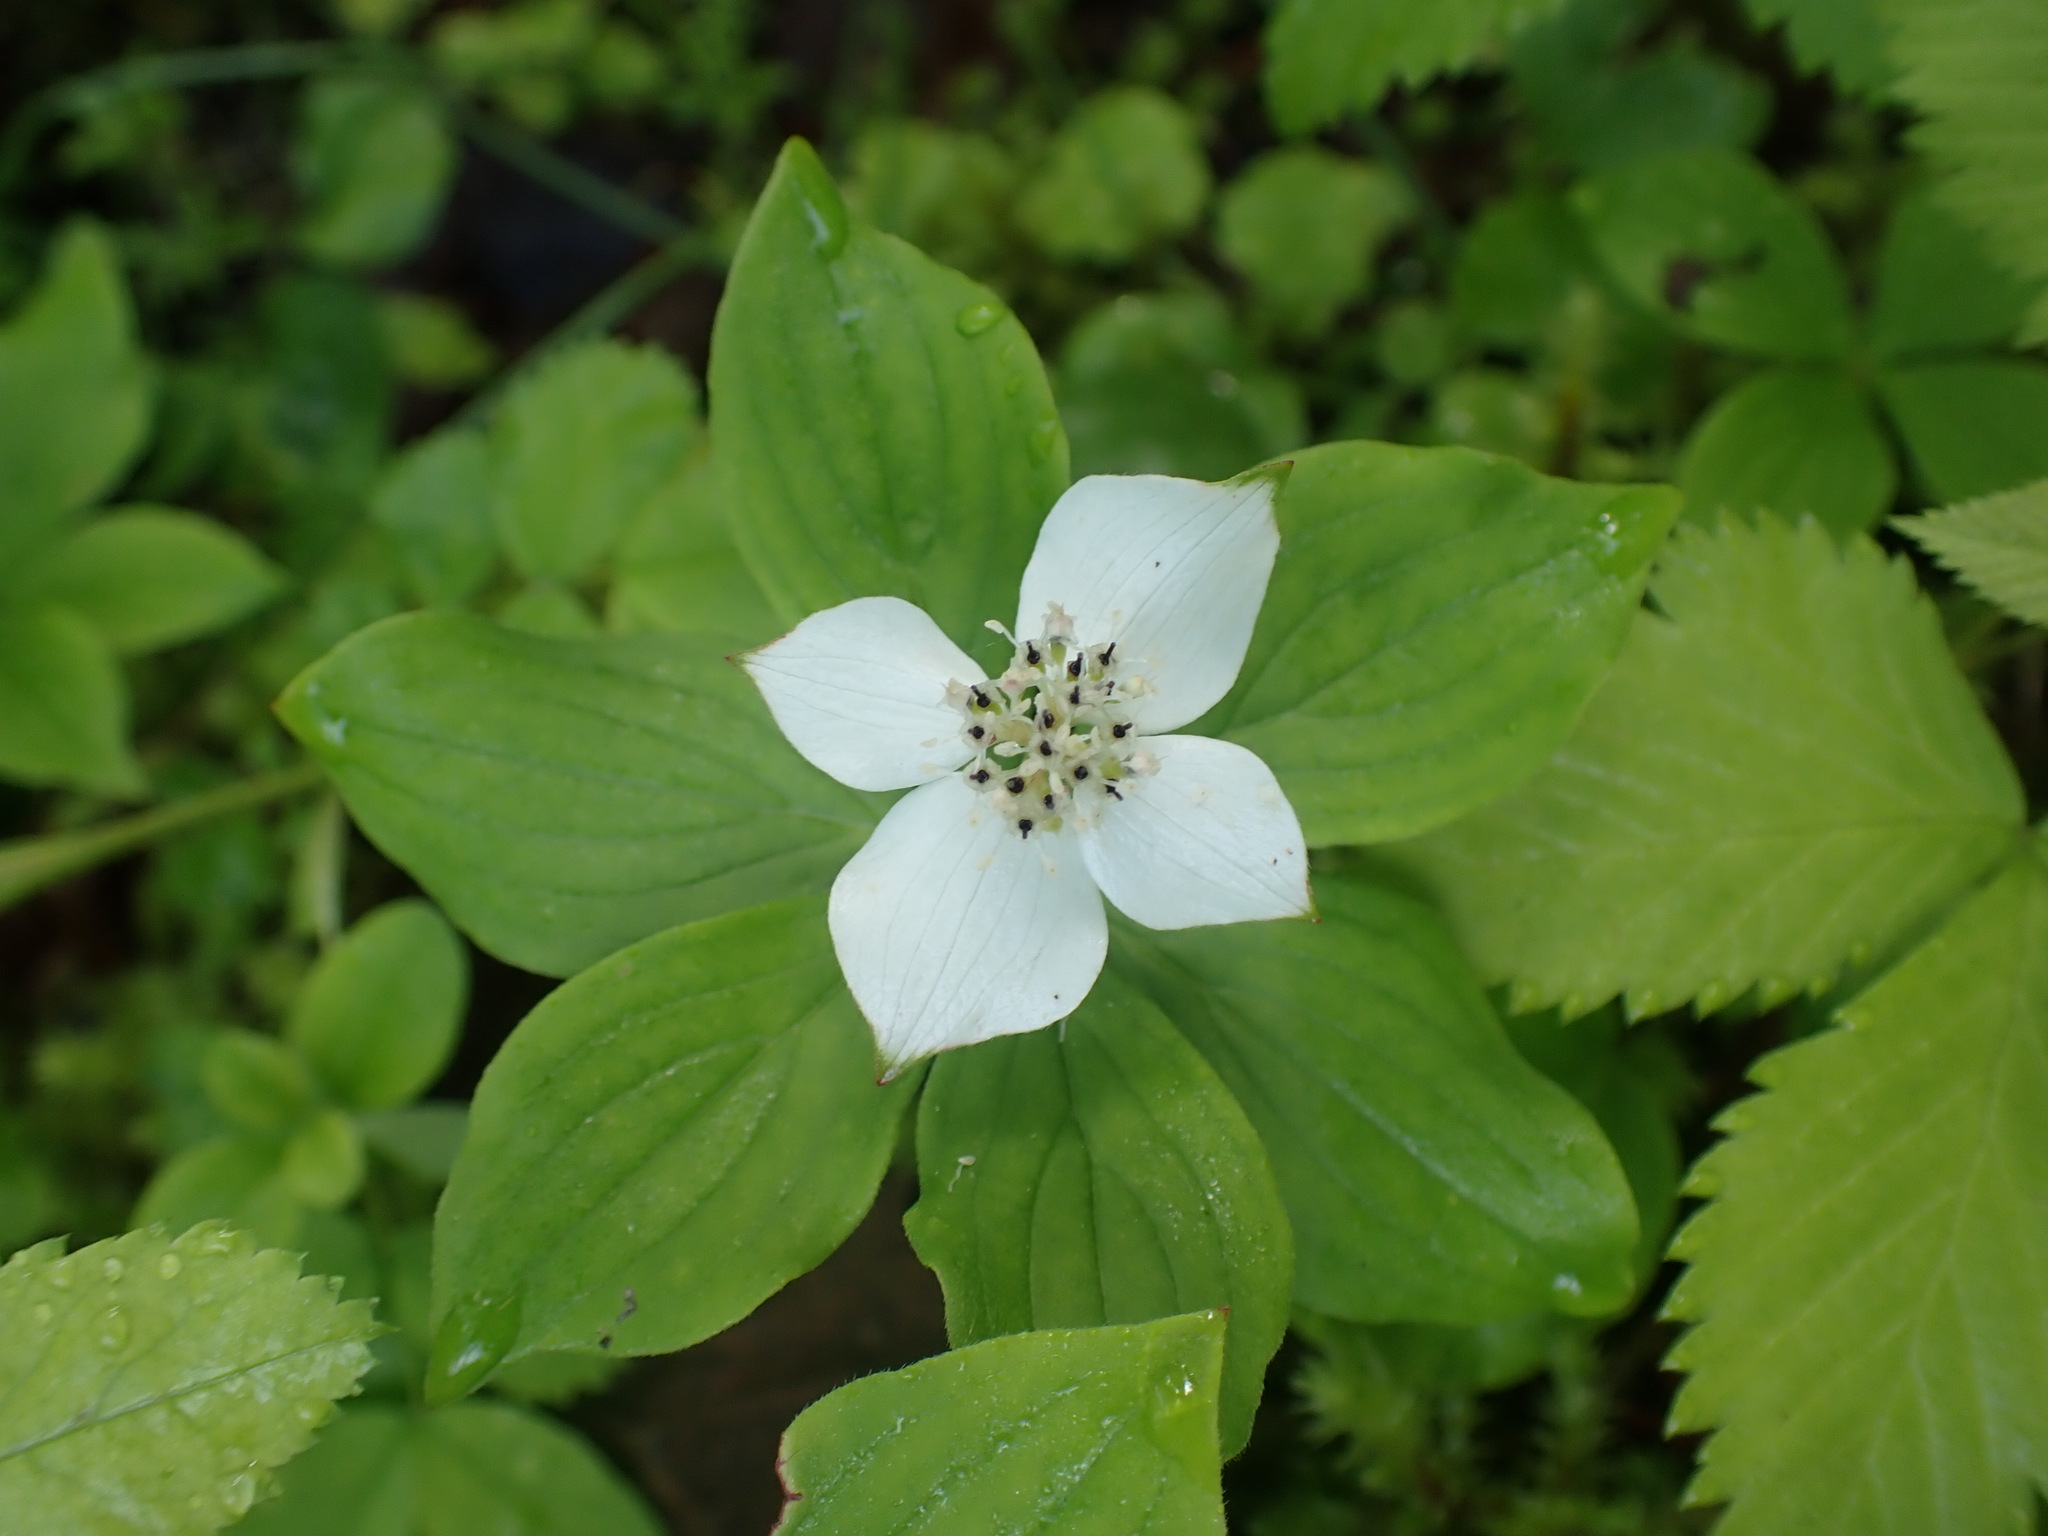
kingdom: Plantae
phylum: Tracheophyta
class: Magnoliopsida
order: Cornales
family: Cornaceae
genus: Cornus
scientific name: Cornus canadensis
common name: Creeping dogwood
